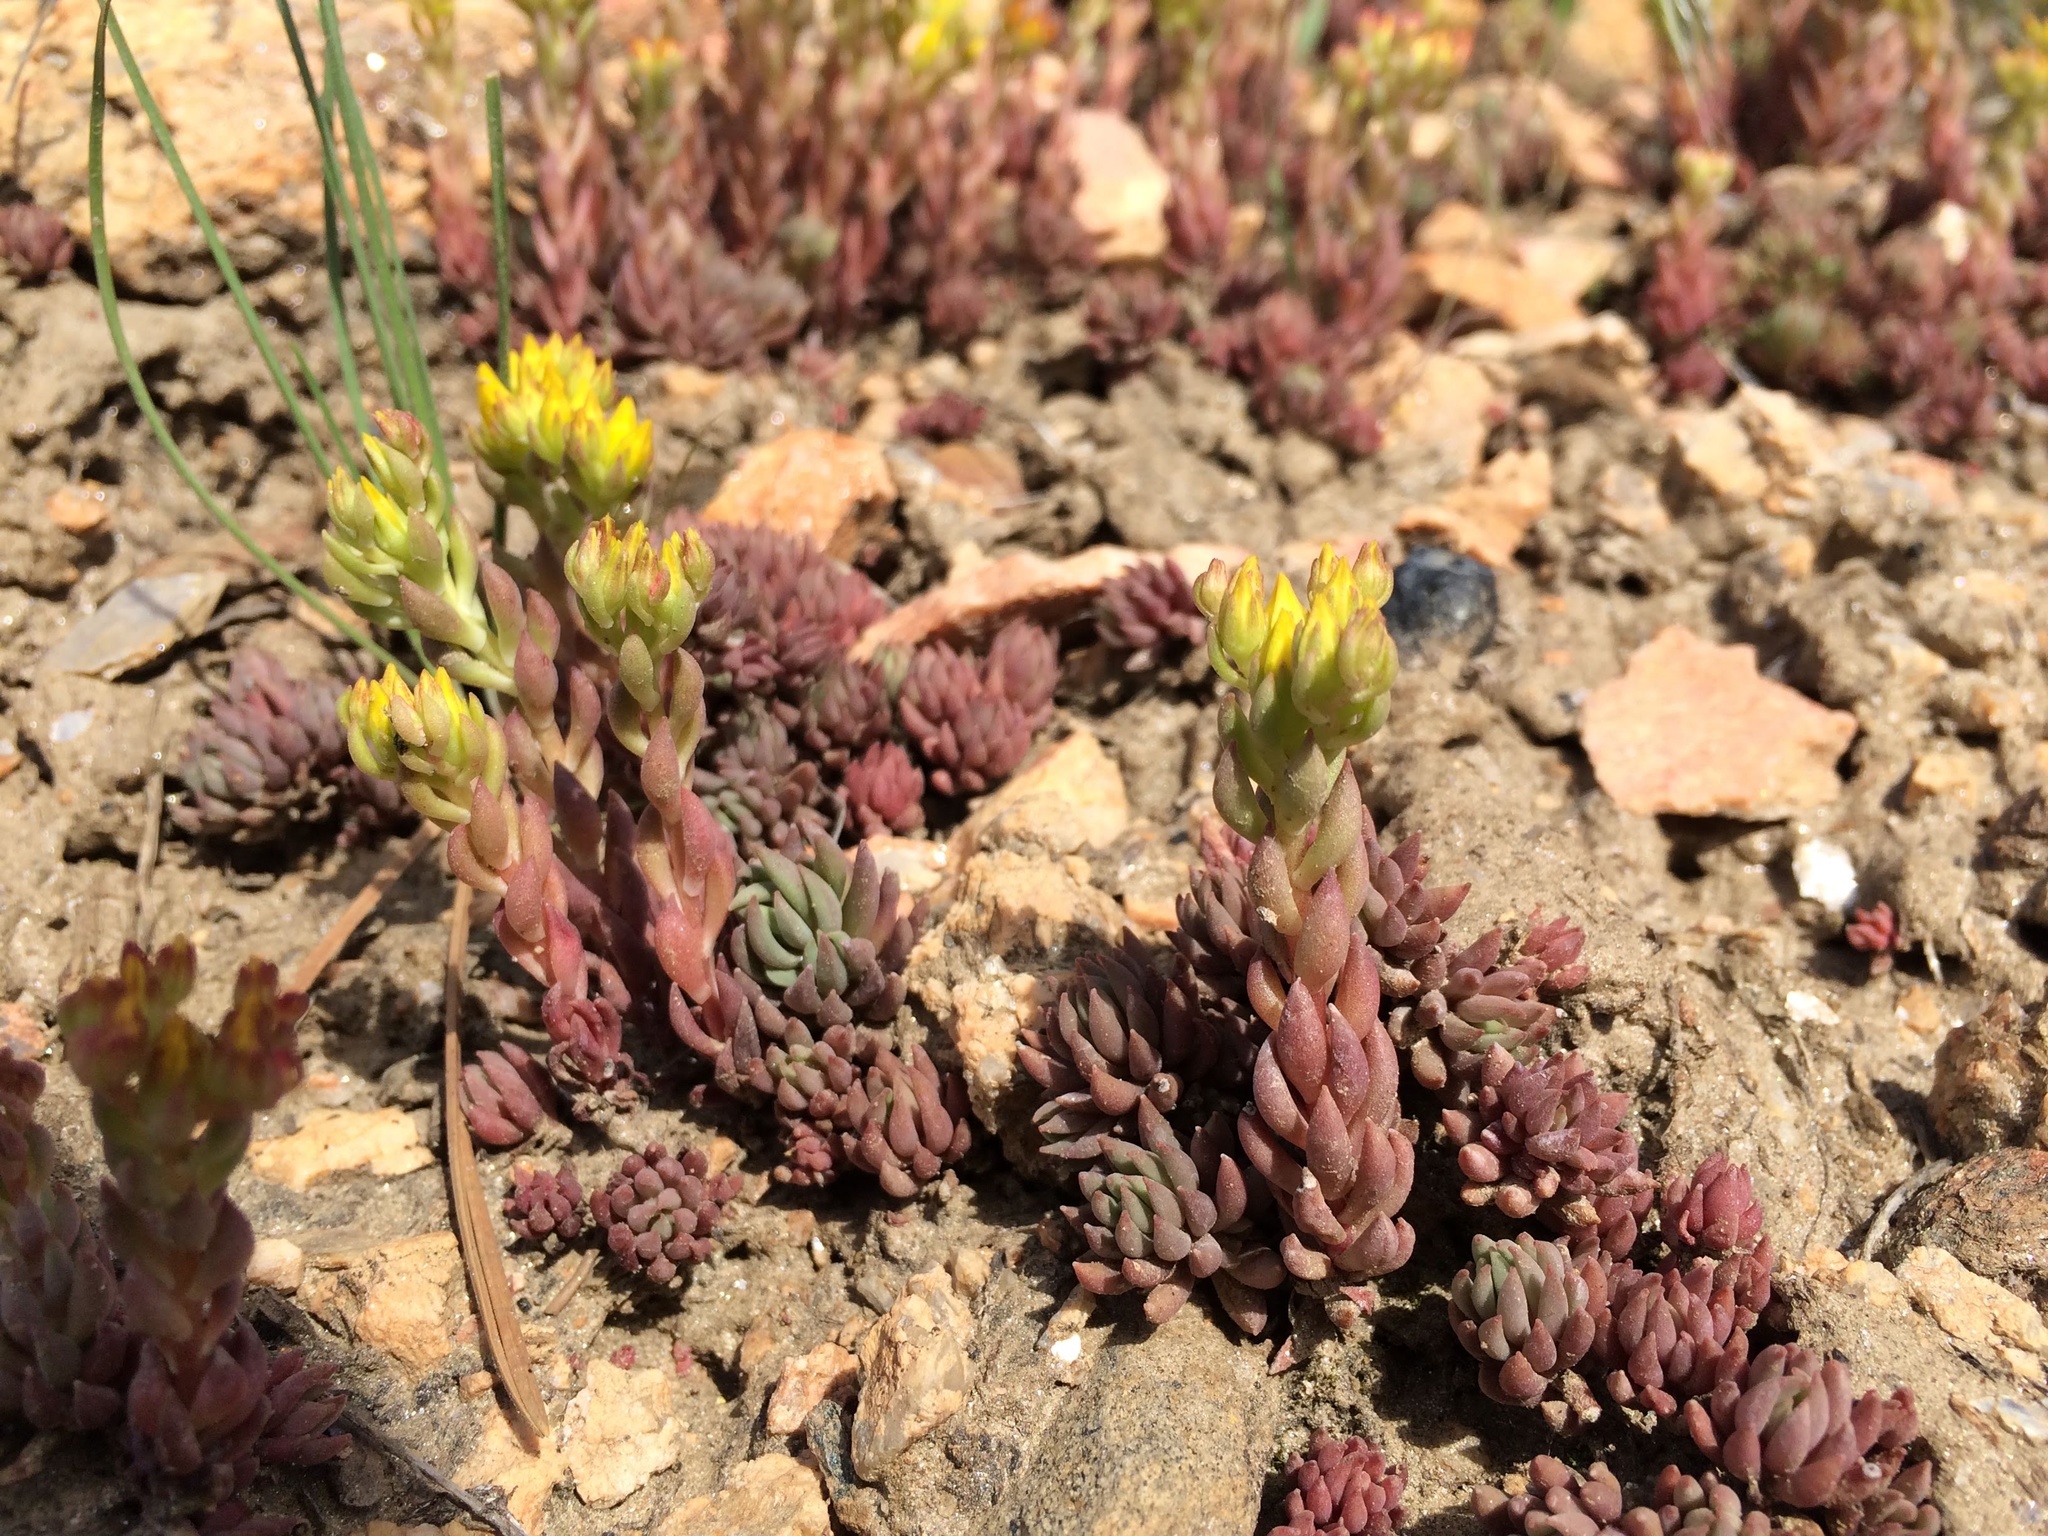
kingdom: Plantae
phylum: Tracheophyta
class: Magnoliopsida
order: Saxifragales
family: Crassulaceae
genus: Sedum
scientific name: Sedum lanceolatum
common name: Common stonecrop
